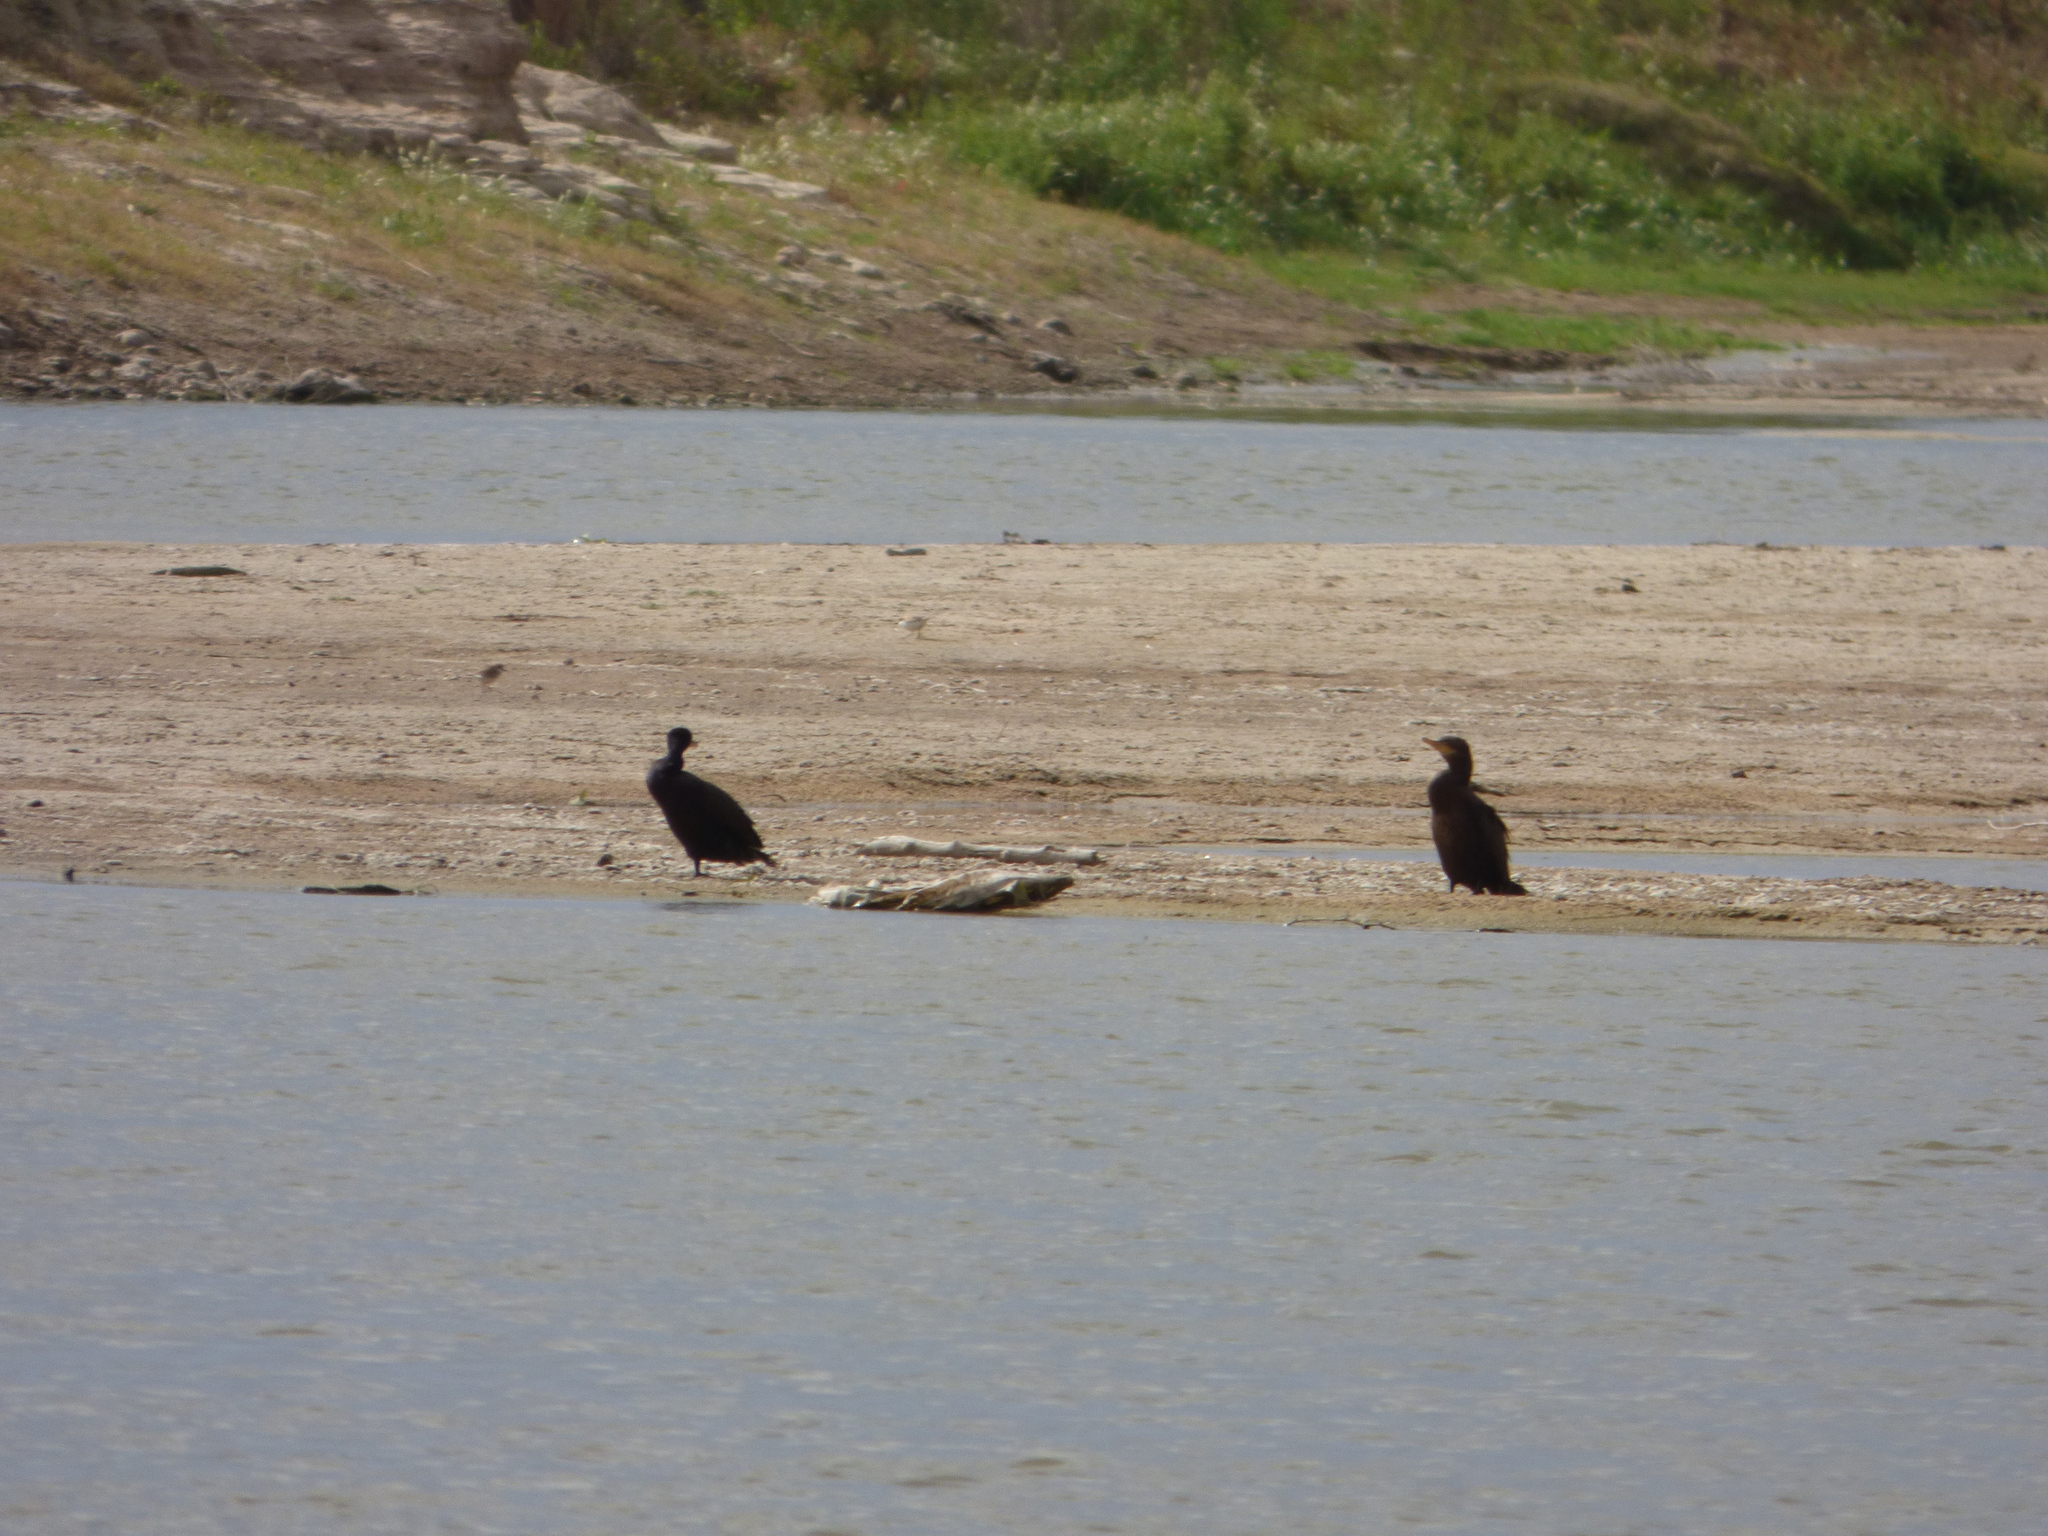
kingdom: Animalia
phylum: Chordata
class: Aves
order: Suliformes
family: Phalacrocoracidae
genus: Phalacrocorax
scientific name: Phalacrocorax brasilianus
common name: Neotropic cormorant
